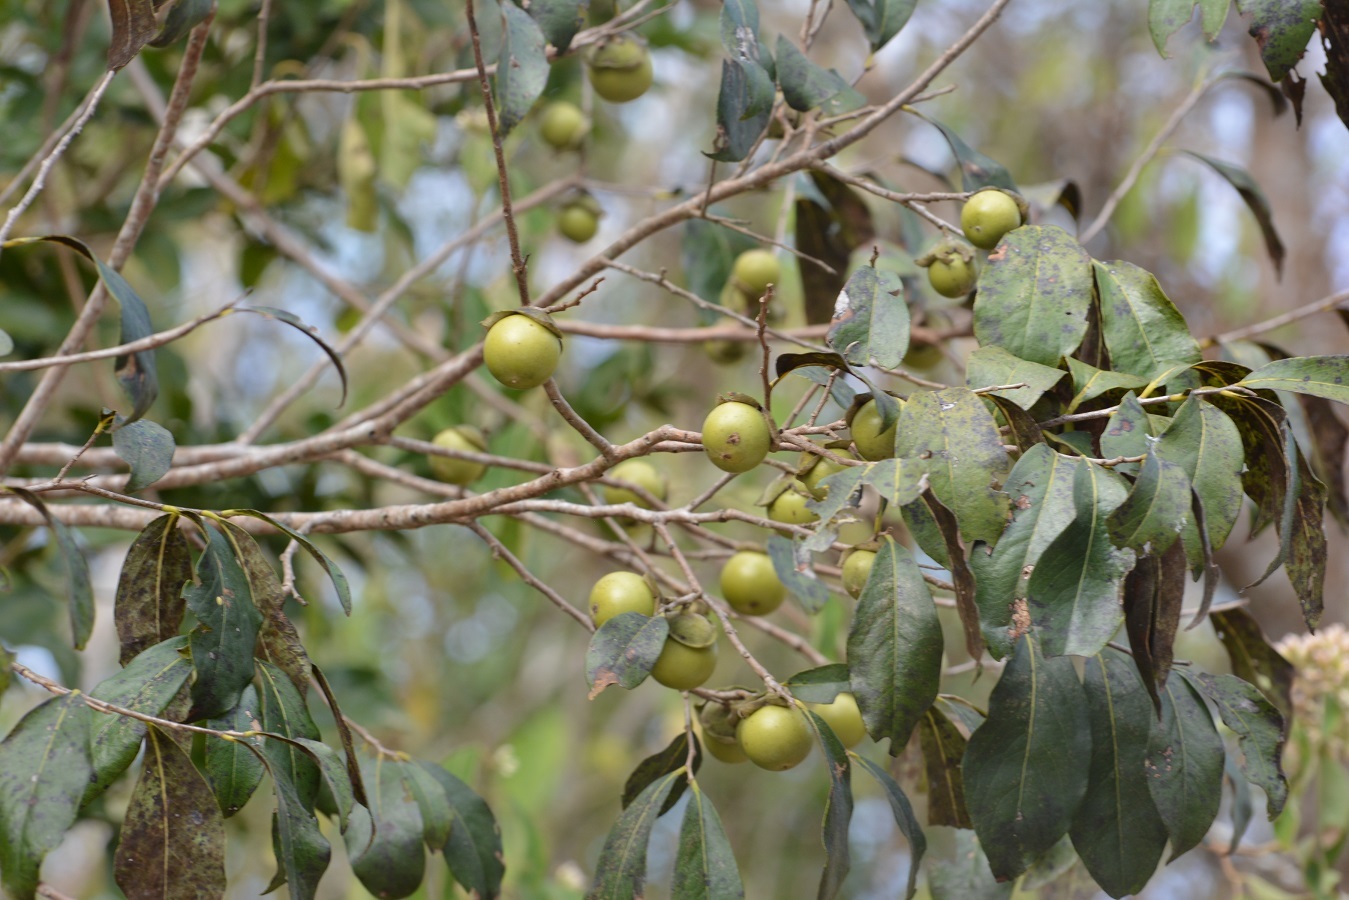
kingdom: Plantae
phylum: Tracheophyta
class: Magnoliopsida
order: Ericales
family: Ebenaceae
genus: Diospyros
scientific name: Diospyros salicifolia
